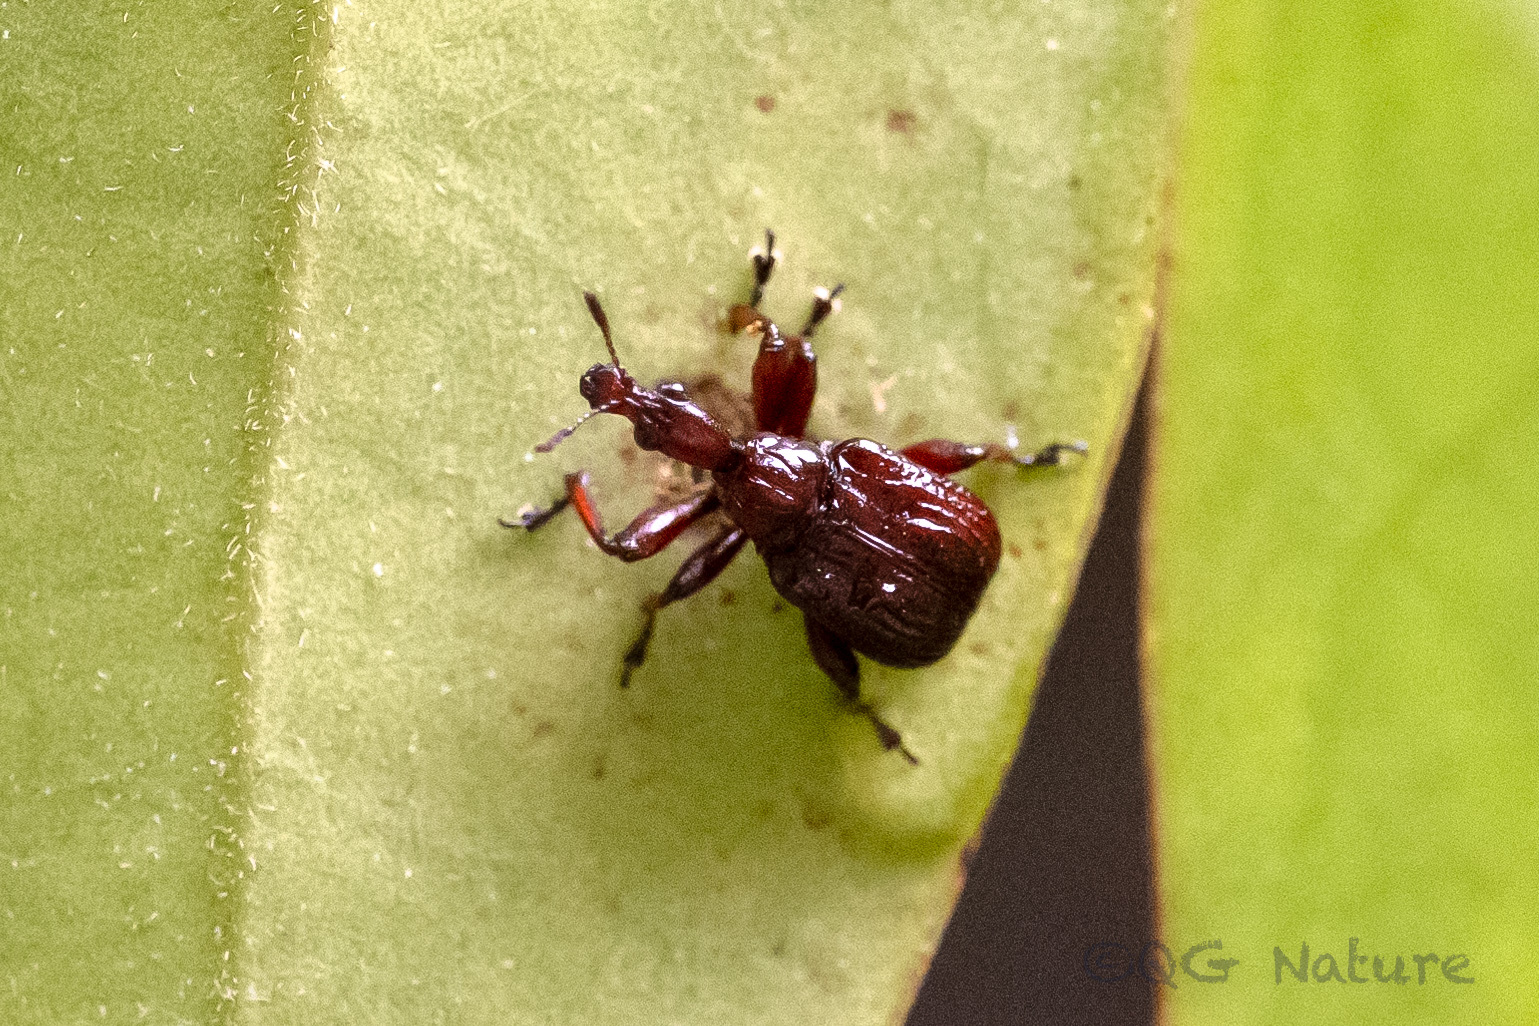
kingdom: Animalia
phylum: Arthropoda
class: Insecta
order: Coleoptera
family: Attelabidae
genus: Heterapoderus
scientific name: Heterapoderus sulcicollis
